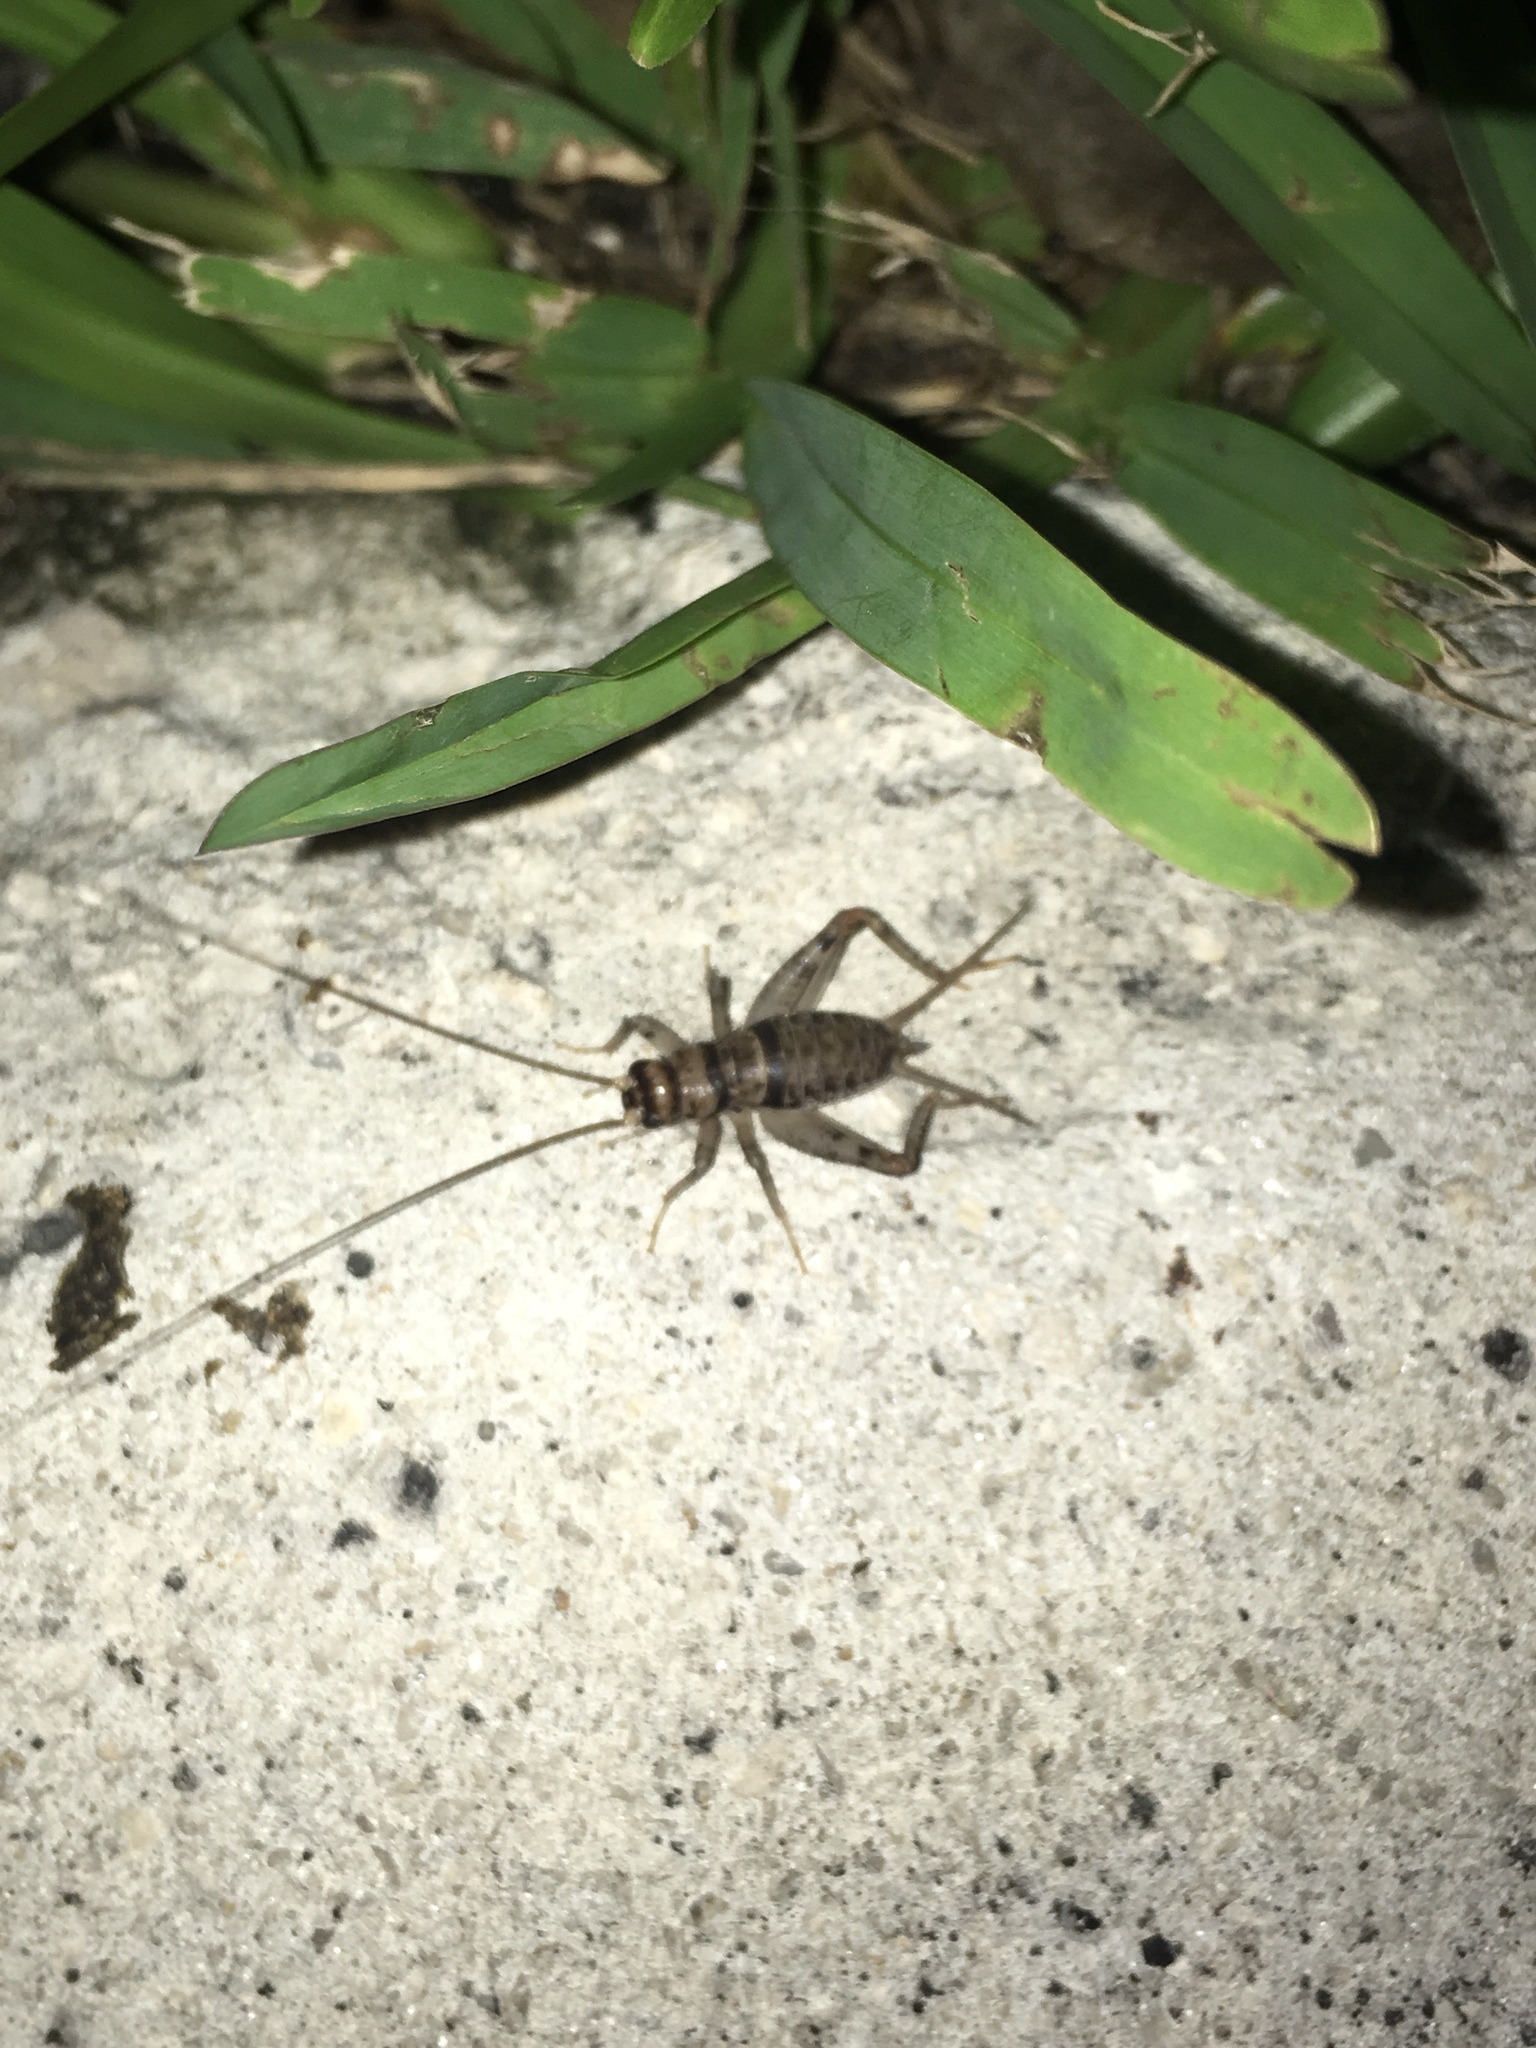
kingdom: Animalia
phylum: Arthropoda
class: Insecta
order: Orthoptera
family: Gryllidae
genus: Gryllodes
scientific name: Gryllodes sigillatus
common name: Tropical house cricket
